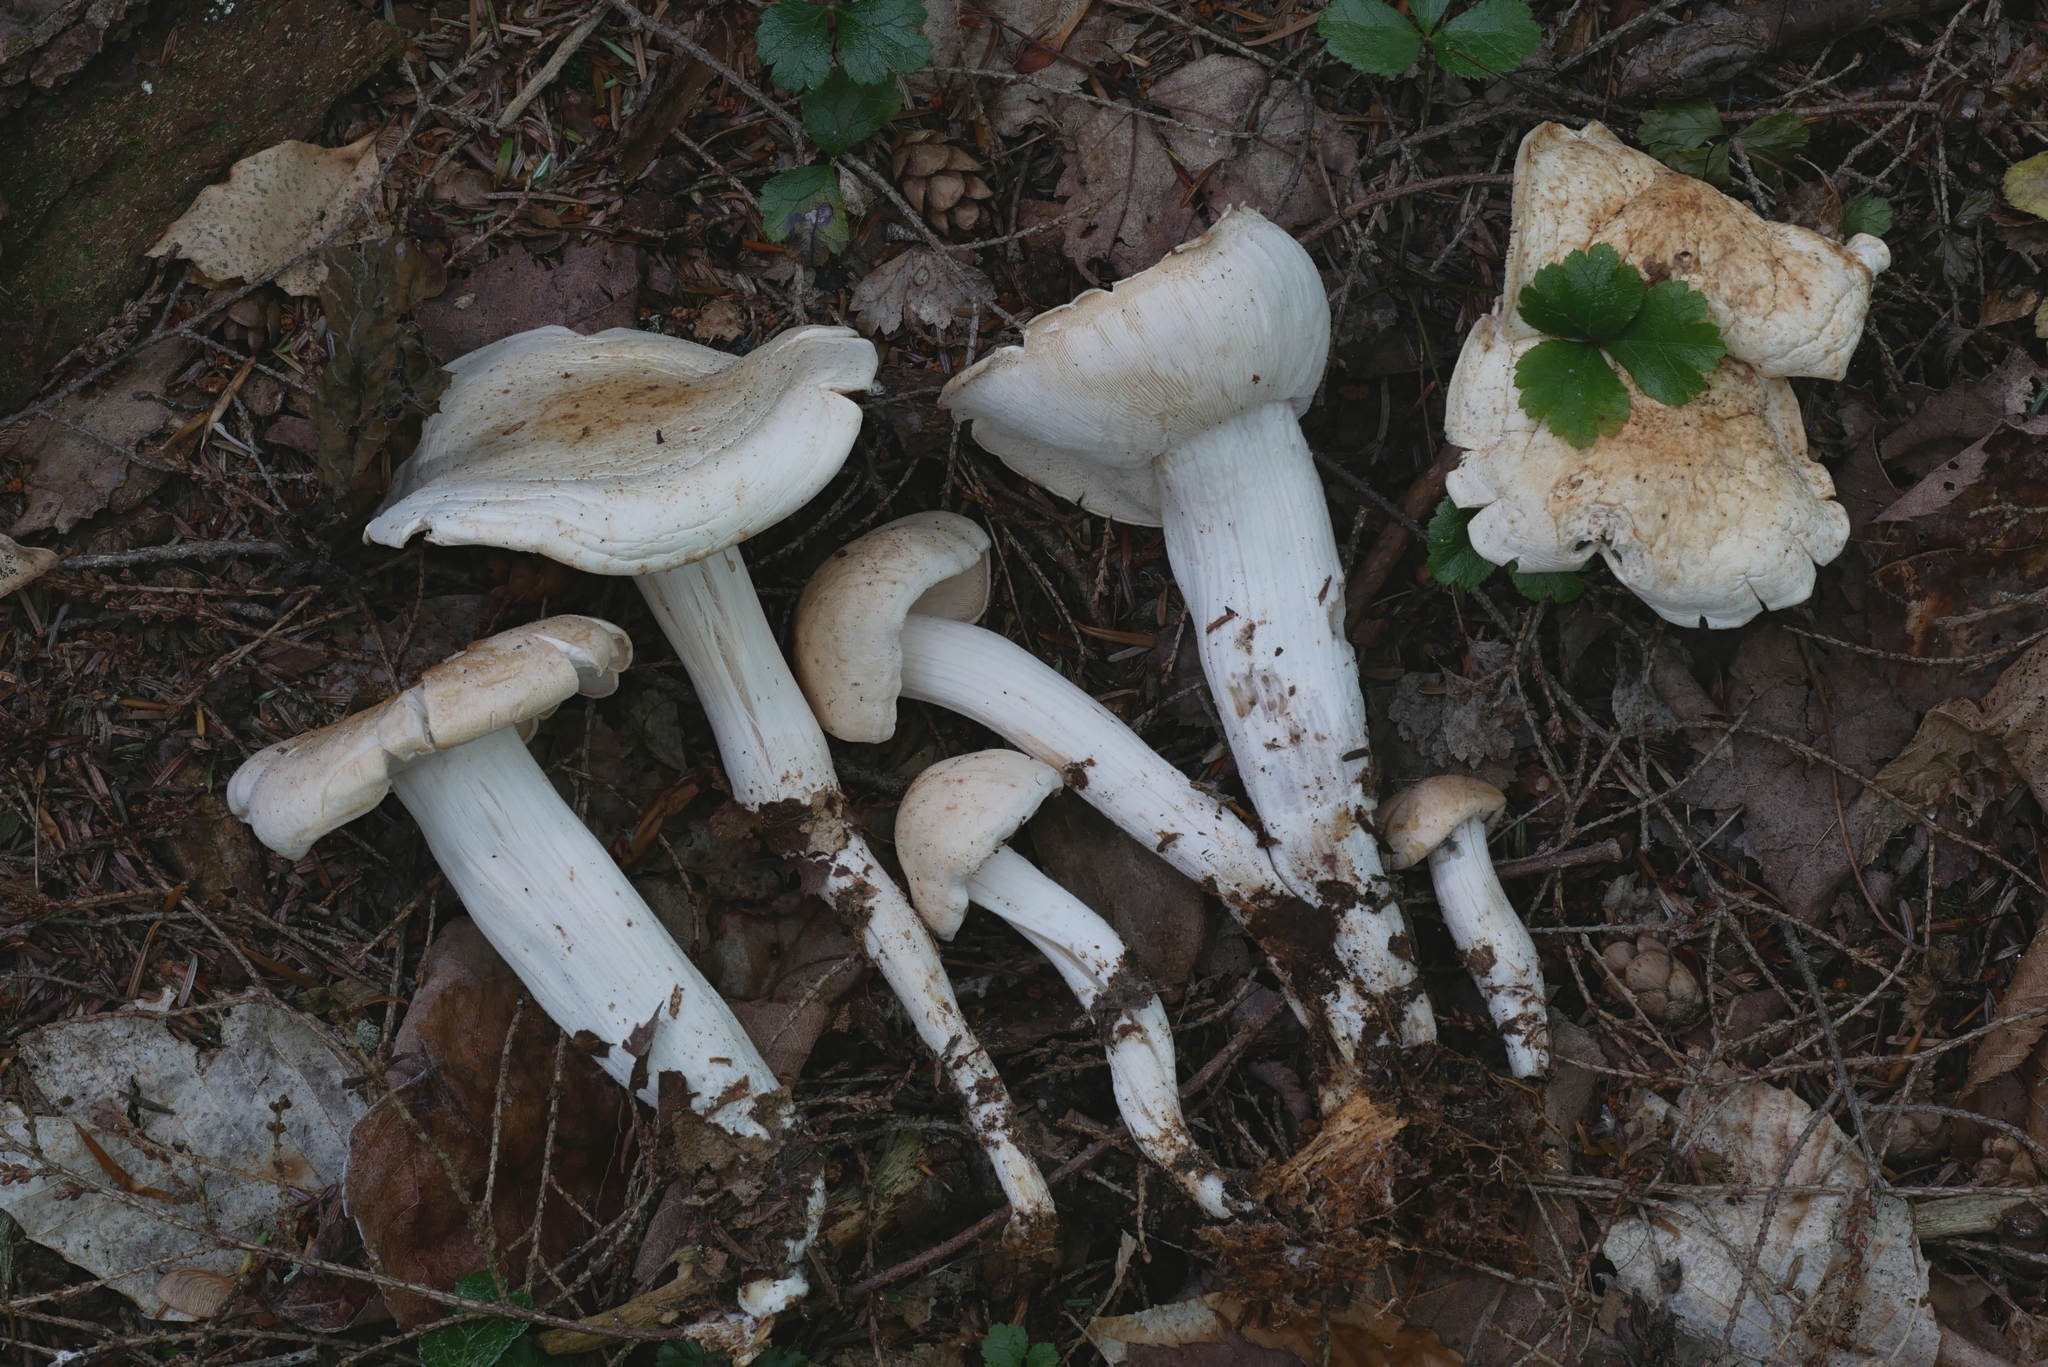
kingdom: Fungi
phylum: Basidiomycota
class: Agaricomycetes
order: Agaricales
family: Omphalotaceae
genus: Rhodocollybia
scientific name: Rhodocollybia maculata
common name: Spotted tough-shank
